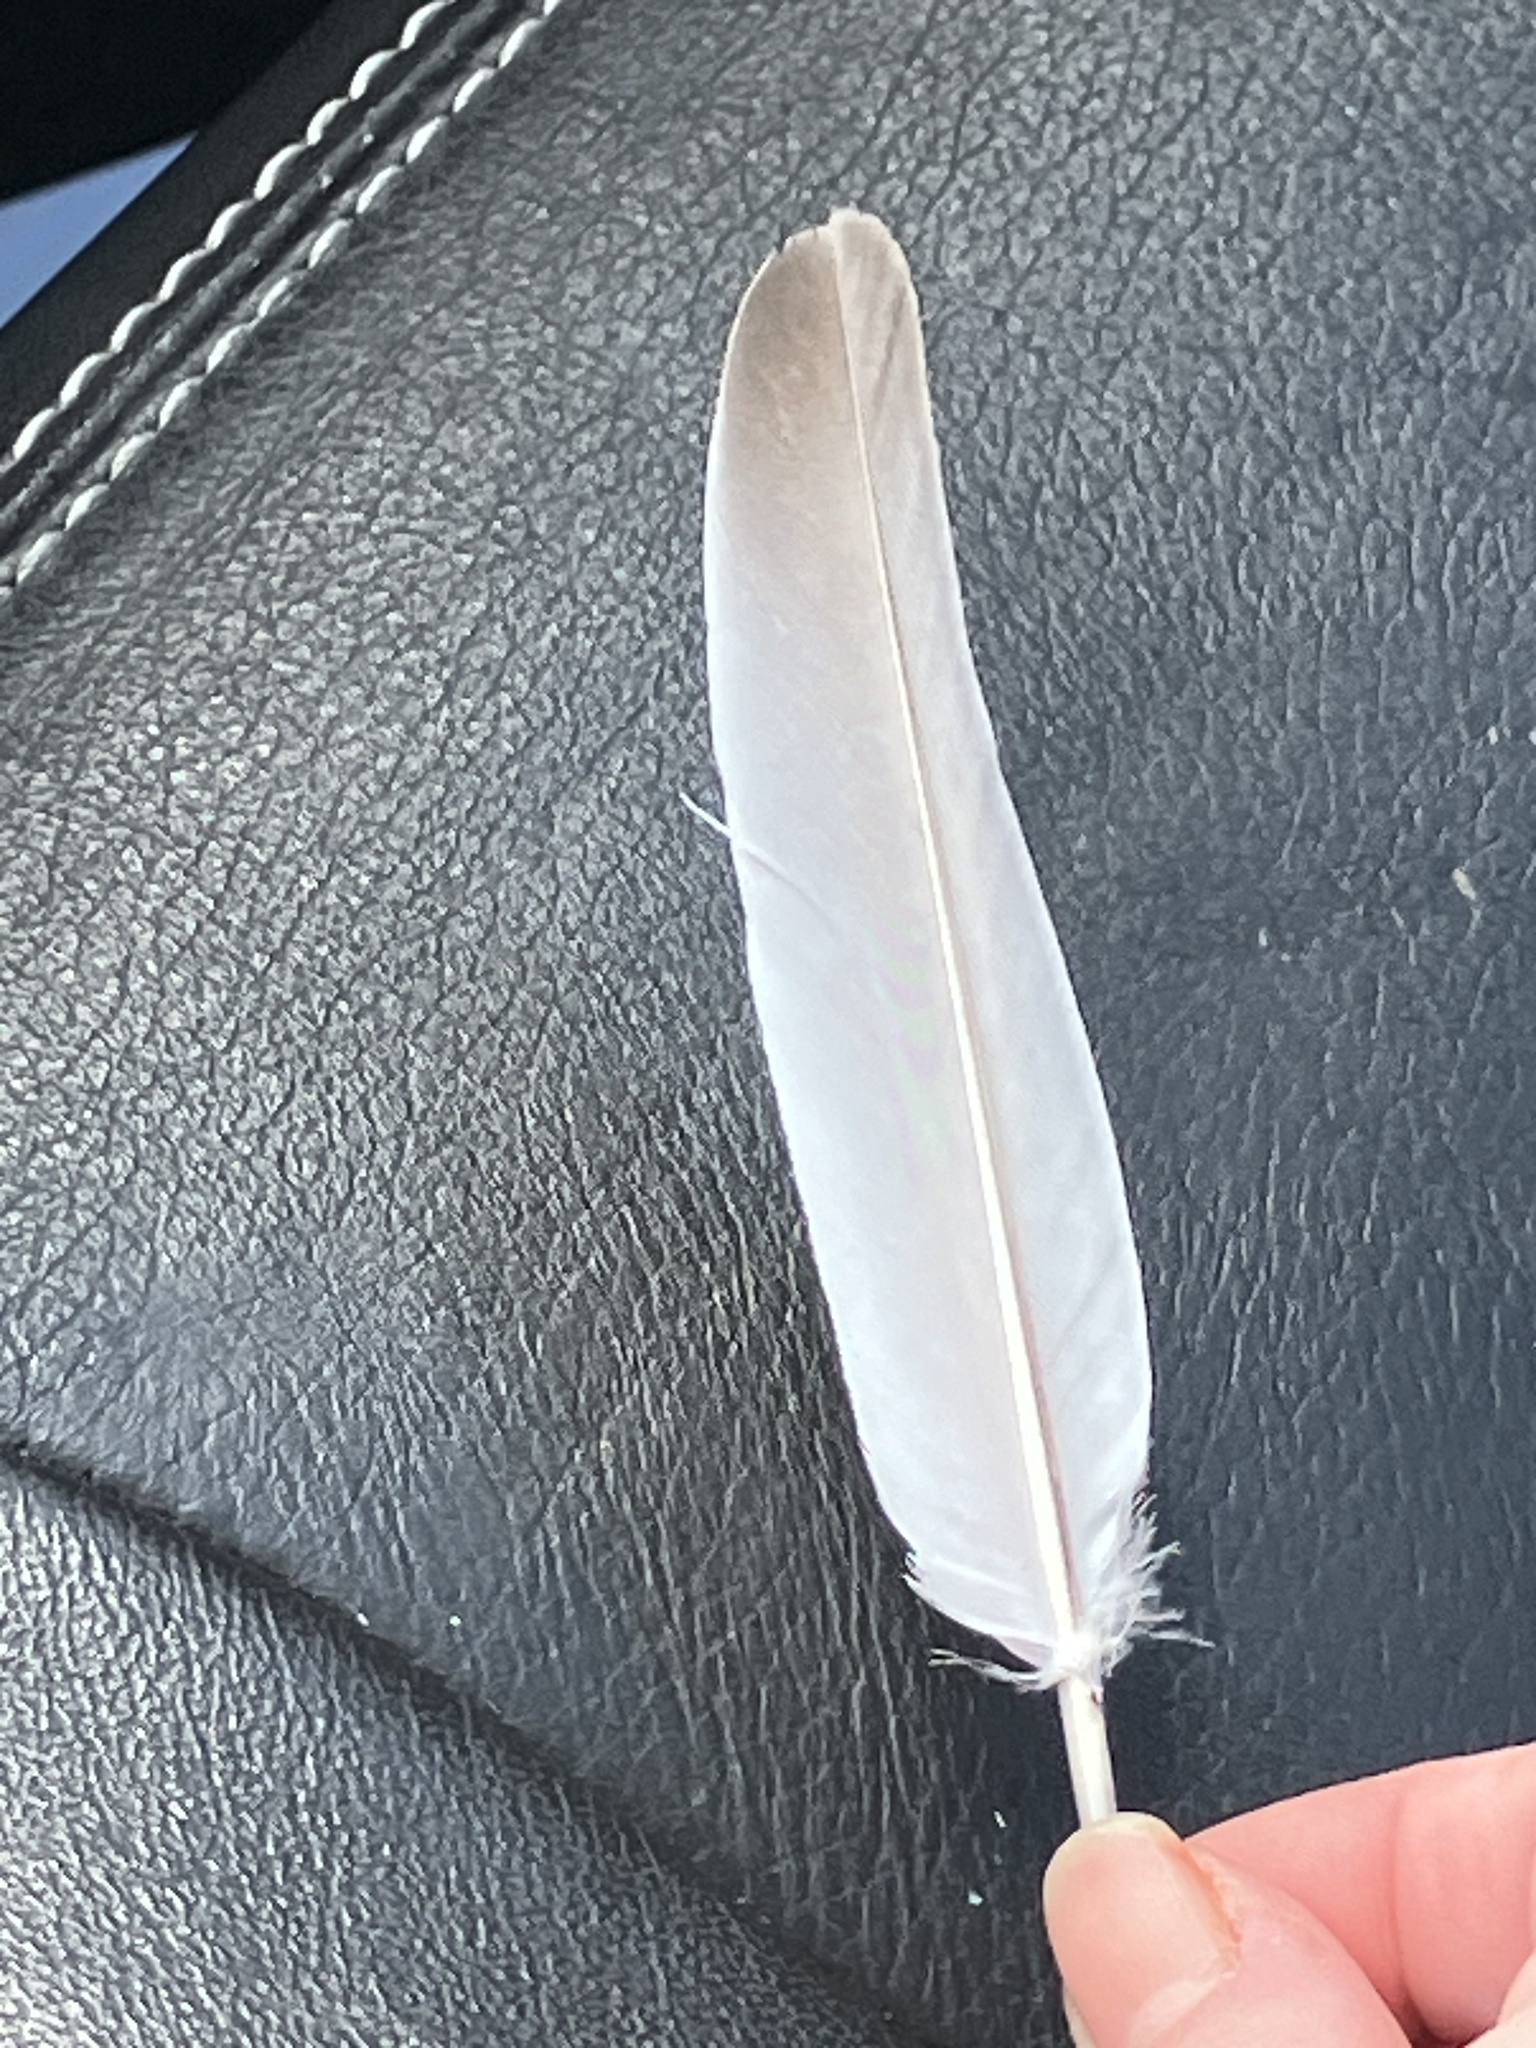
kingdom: Animalia
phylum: Chordata
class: Aves
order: Columbiformes
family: Columbidae
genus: Zenaida
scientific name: Zenaida macroura
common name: Mourning dove
